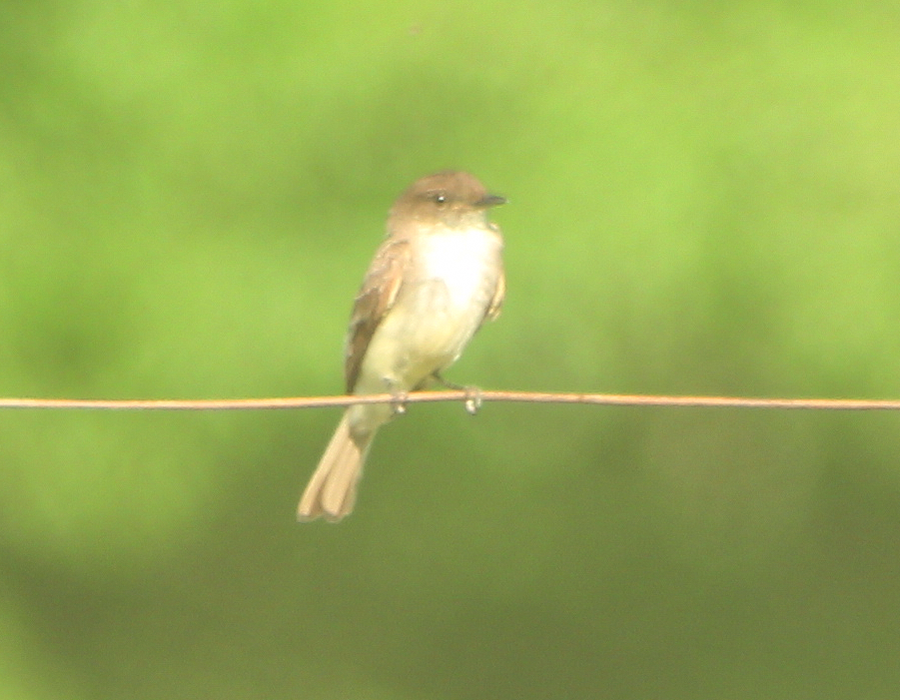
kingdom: Animalia
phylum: Chordata
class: Aves
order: Passeriformes
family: Tyrannidae
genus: Sayornis
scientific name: Sayornis phoebe
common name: Eastern phoebe
